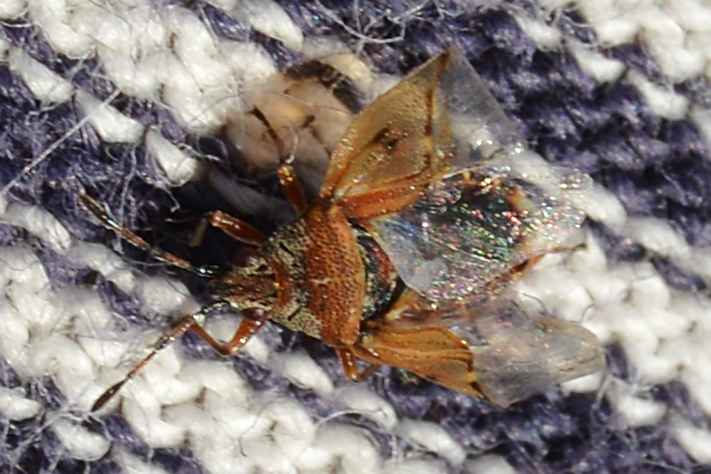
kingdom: Animalia
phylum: Arthropoda
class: Insecta
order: Hemiptera
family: Lygaeidae
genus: Kleidocerys
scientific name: Kleidocerys resedae
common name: Birch catkin bug
